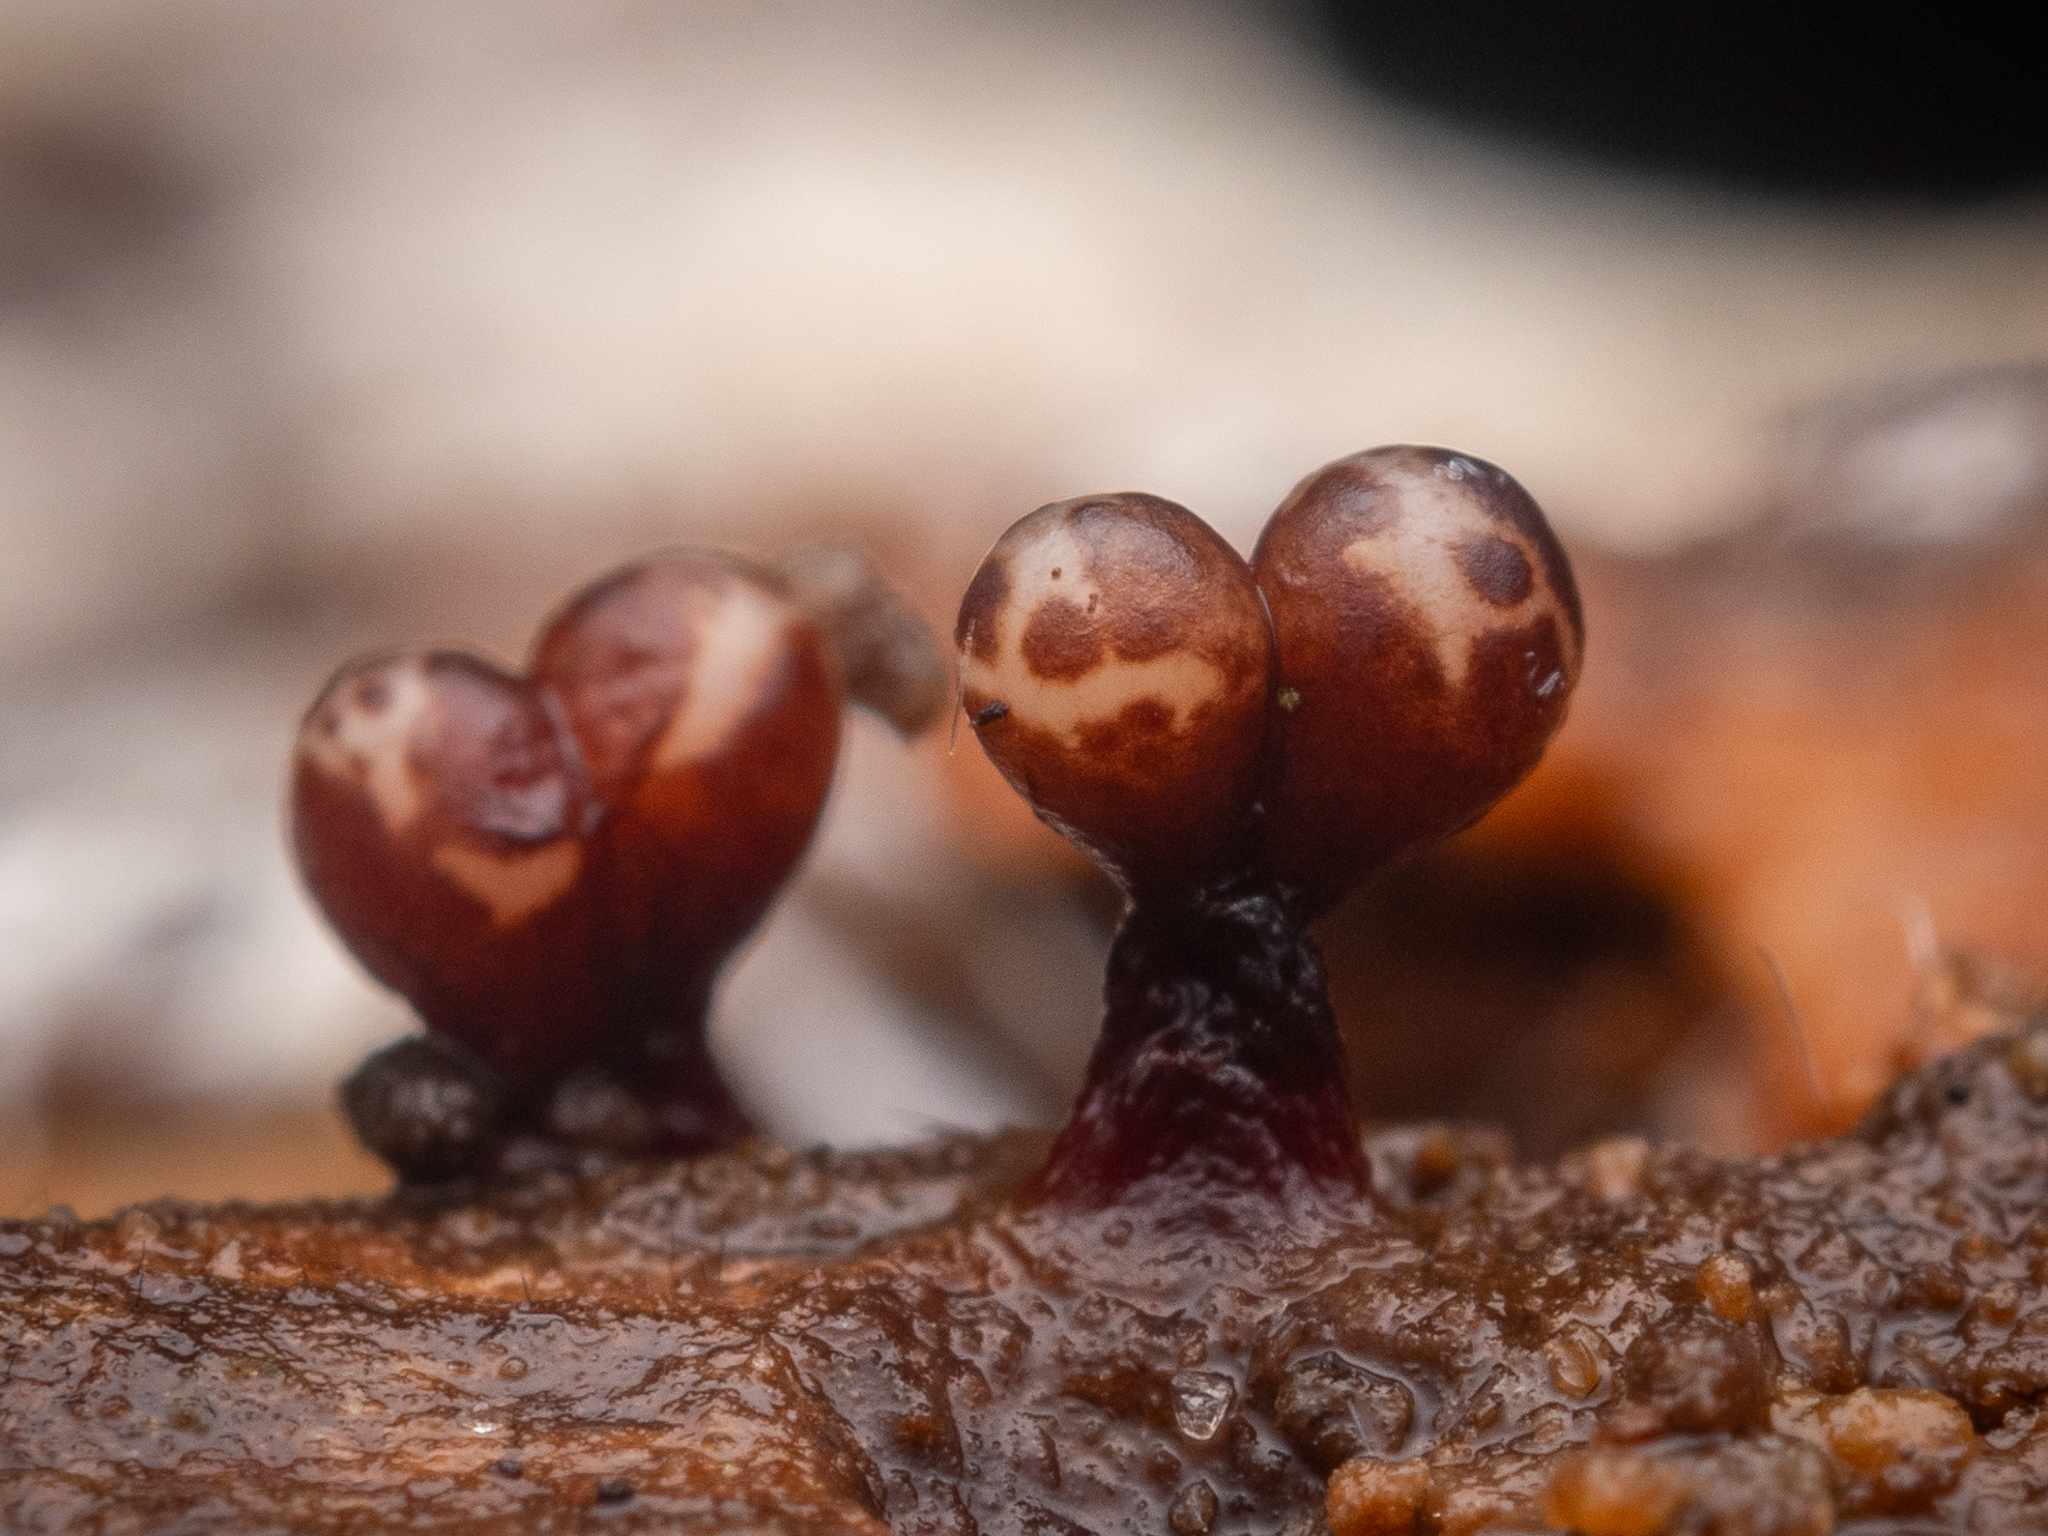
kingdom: Protozoa
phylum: Mycetozoa
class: Myxomycetes
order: Trichiales
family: Trichiaceae
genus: Trichia
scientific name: Trichia botrytis
